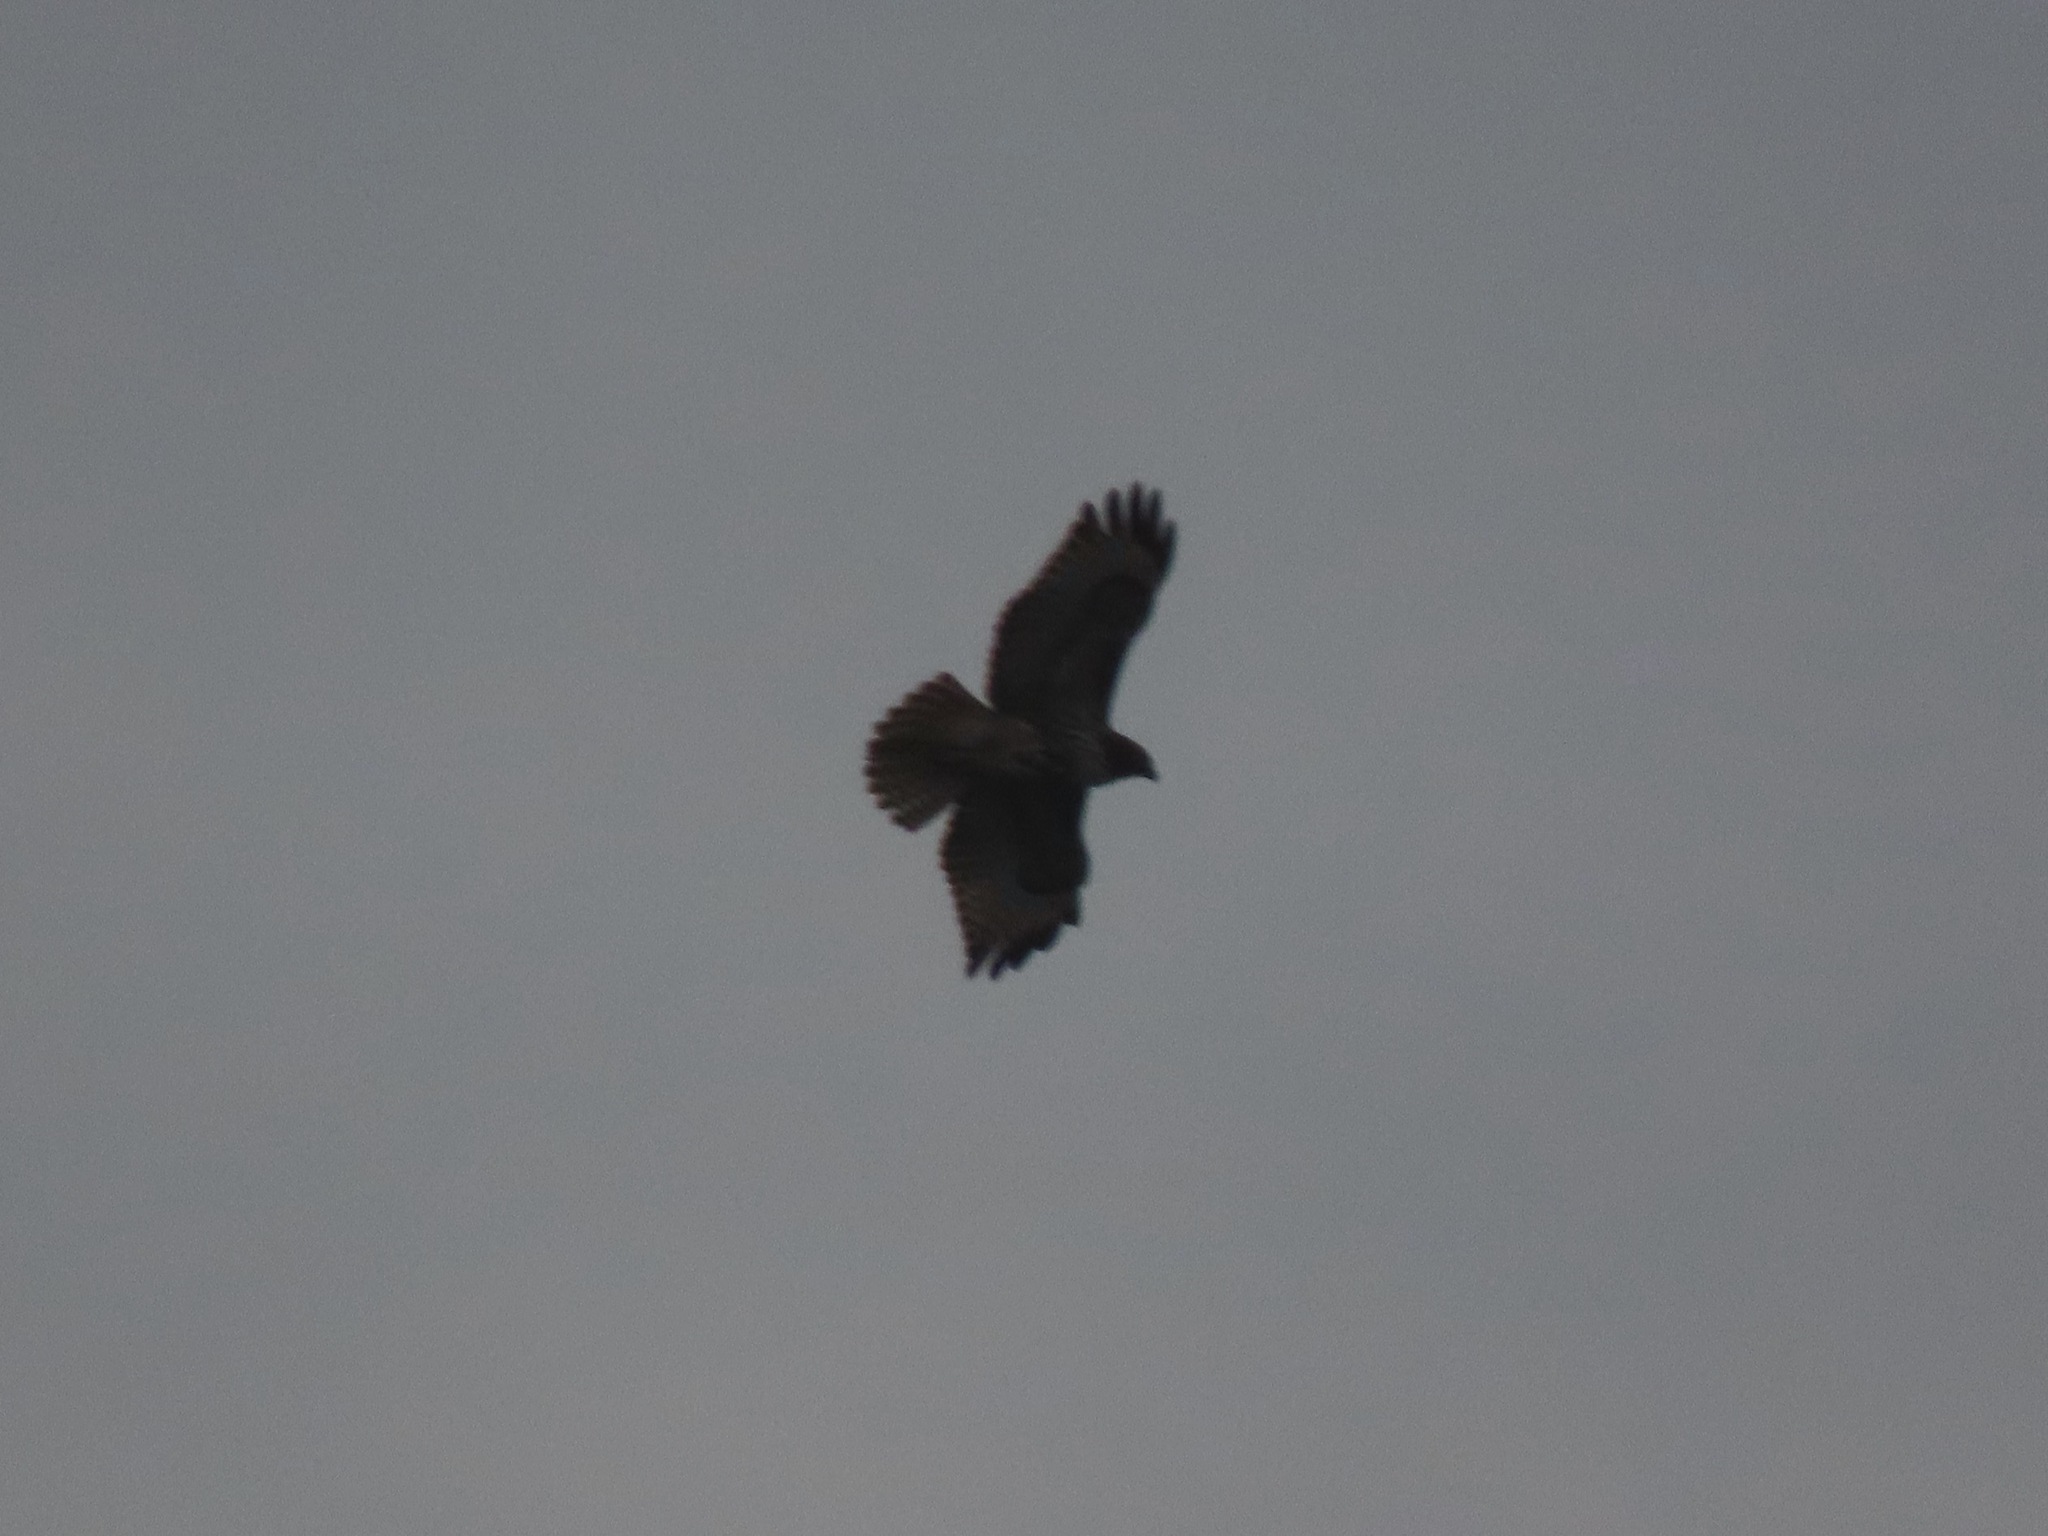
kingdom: Animalia
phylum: Chordata
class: Aves
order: Accipitriformes
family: Accipitridae
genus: Buteo
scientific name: Buteo jamaicensis
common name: Red-tailed hawk
